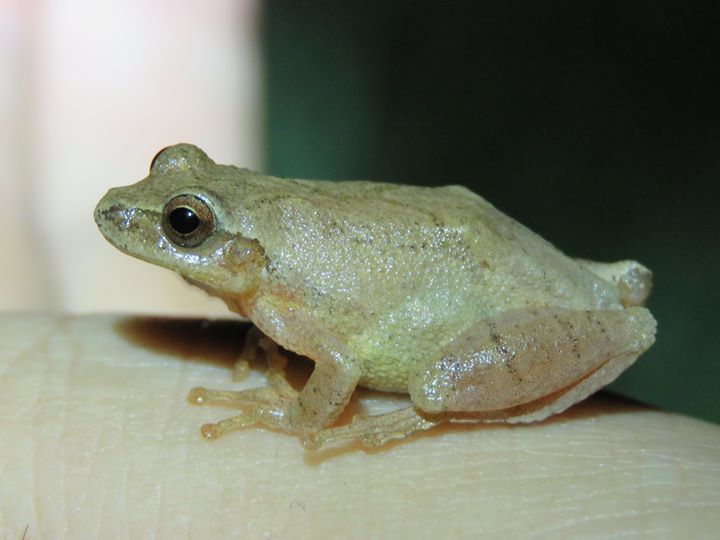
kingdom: Animalia
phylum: Chordata
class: Amphibia
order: Anura
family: Hylidae
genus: Pseudacris
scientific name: Pseudacris crucifer
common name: Spring peeper
